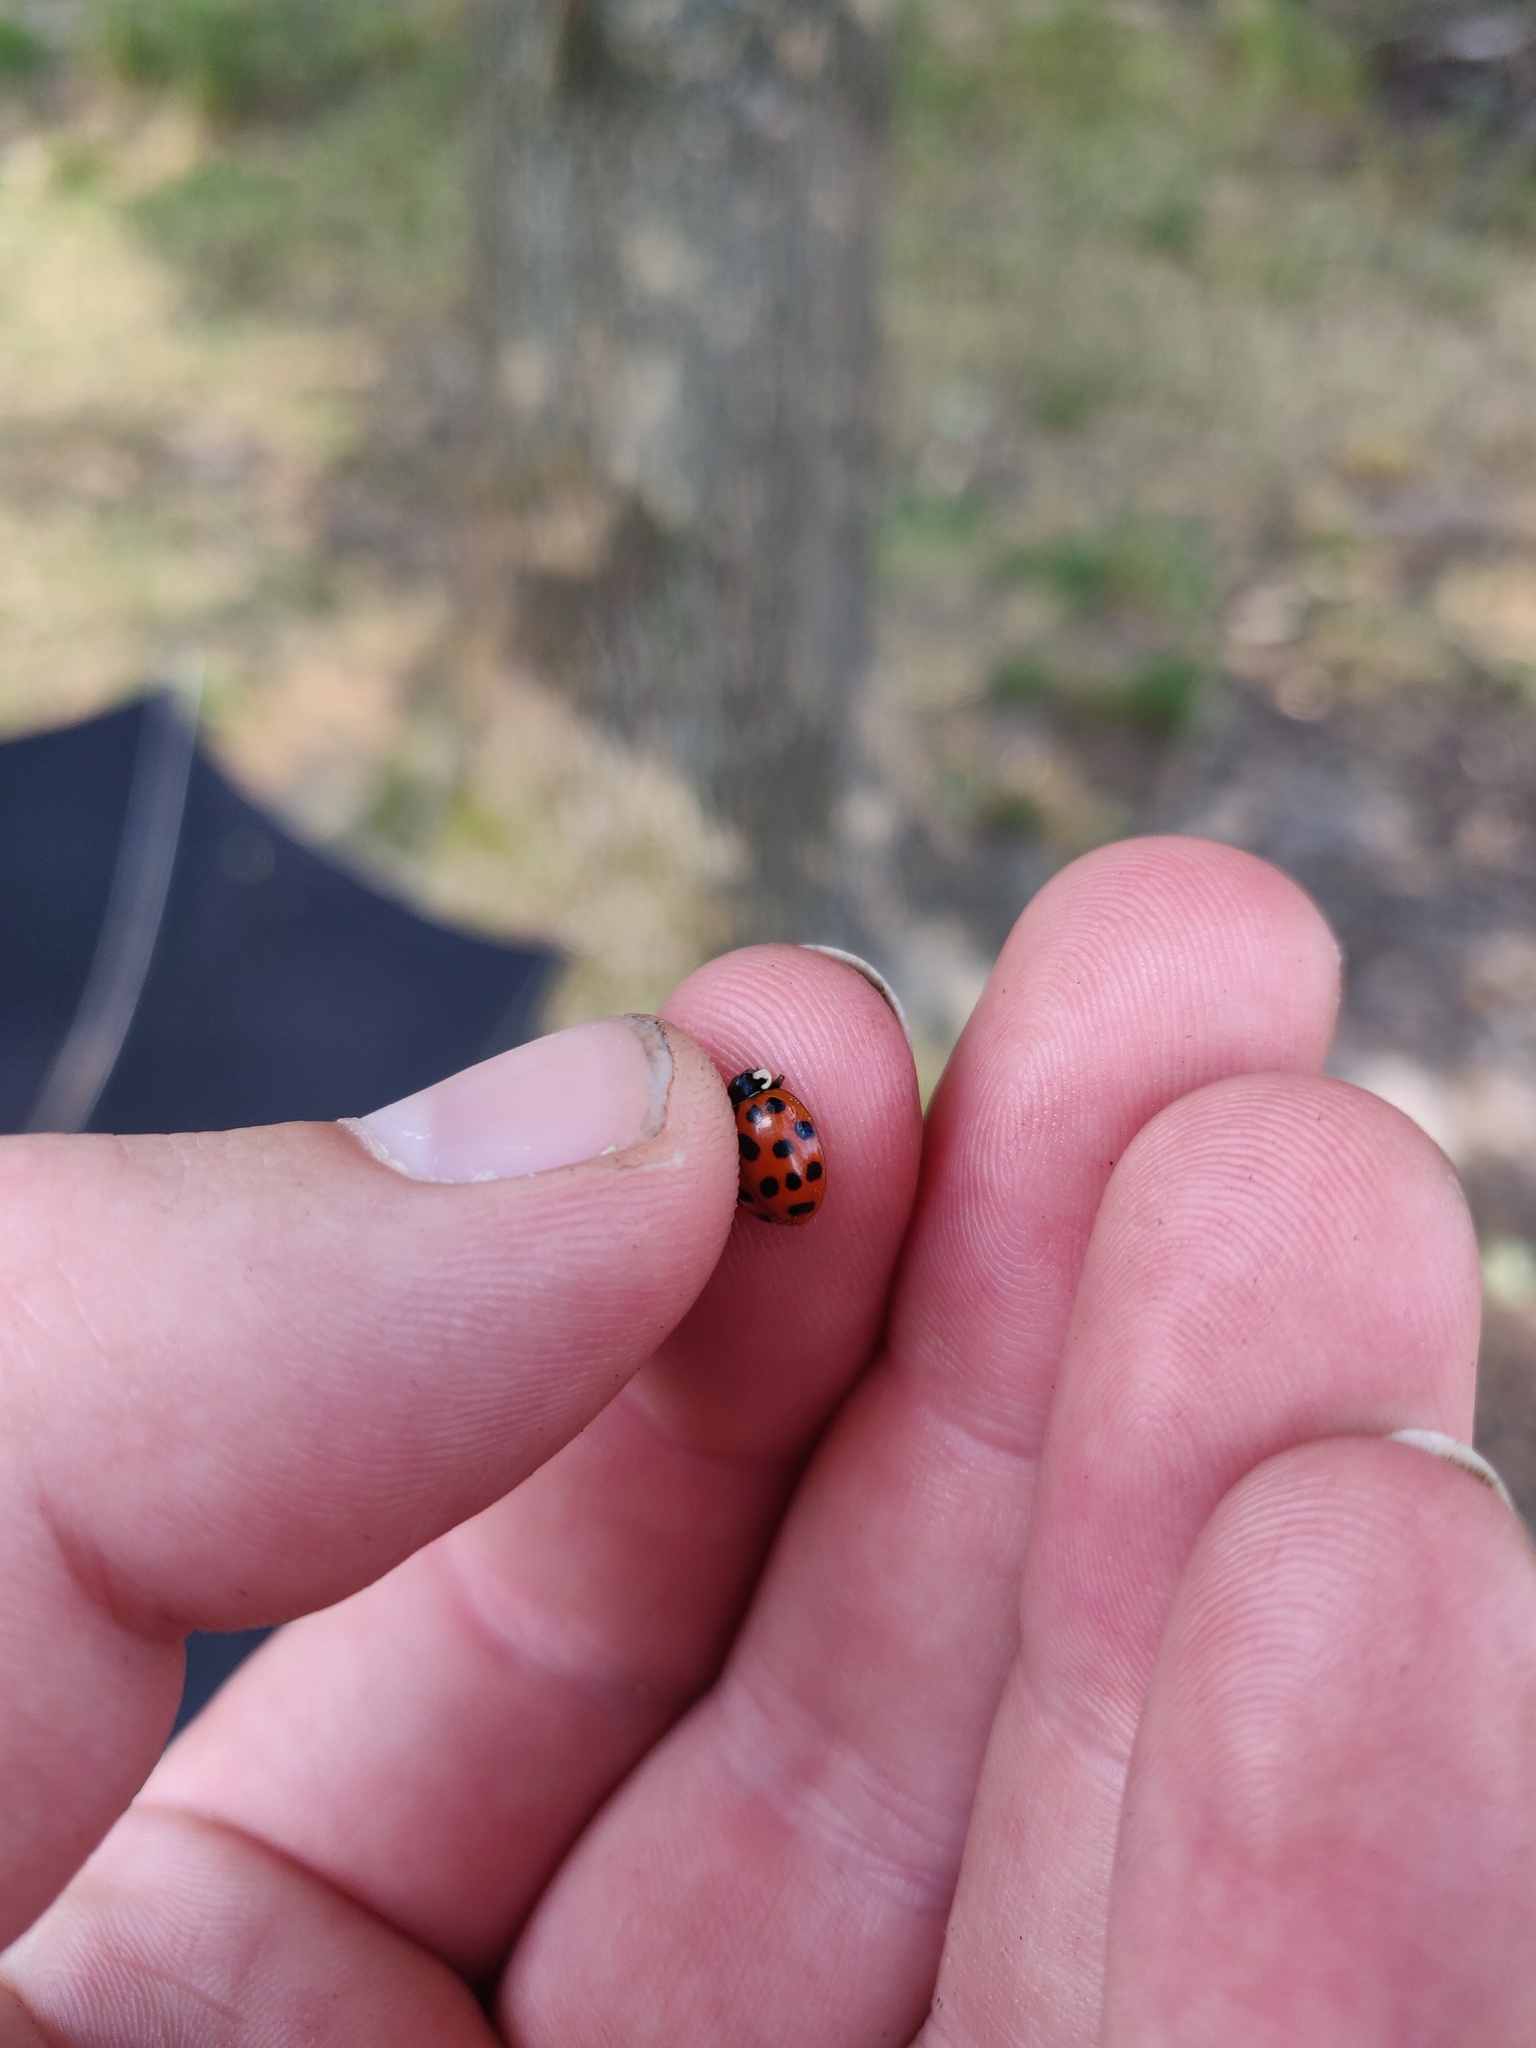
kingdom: Animalia
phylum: Arthropoda
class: Insecta
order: Coleoptera
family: Coccinellidae
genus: Harmonia
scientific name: Harmonia axyridis
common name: Harlequin ladybird
